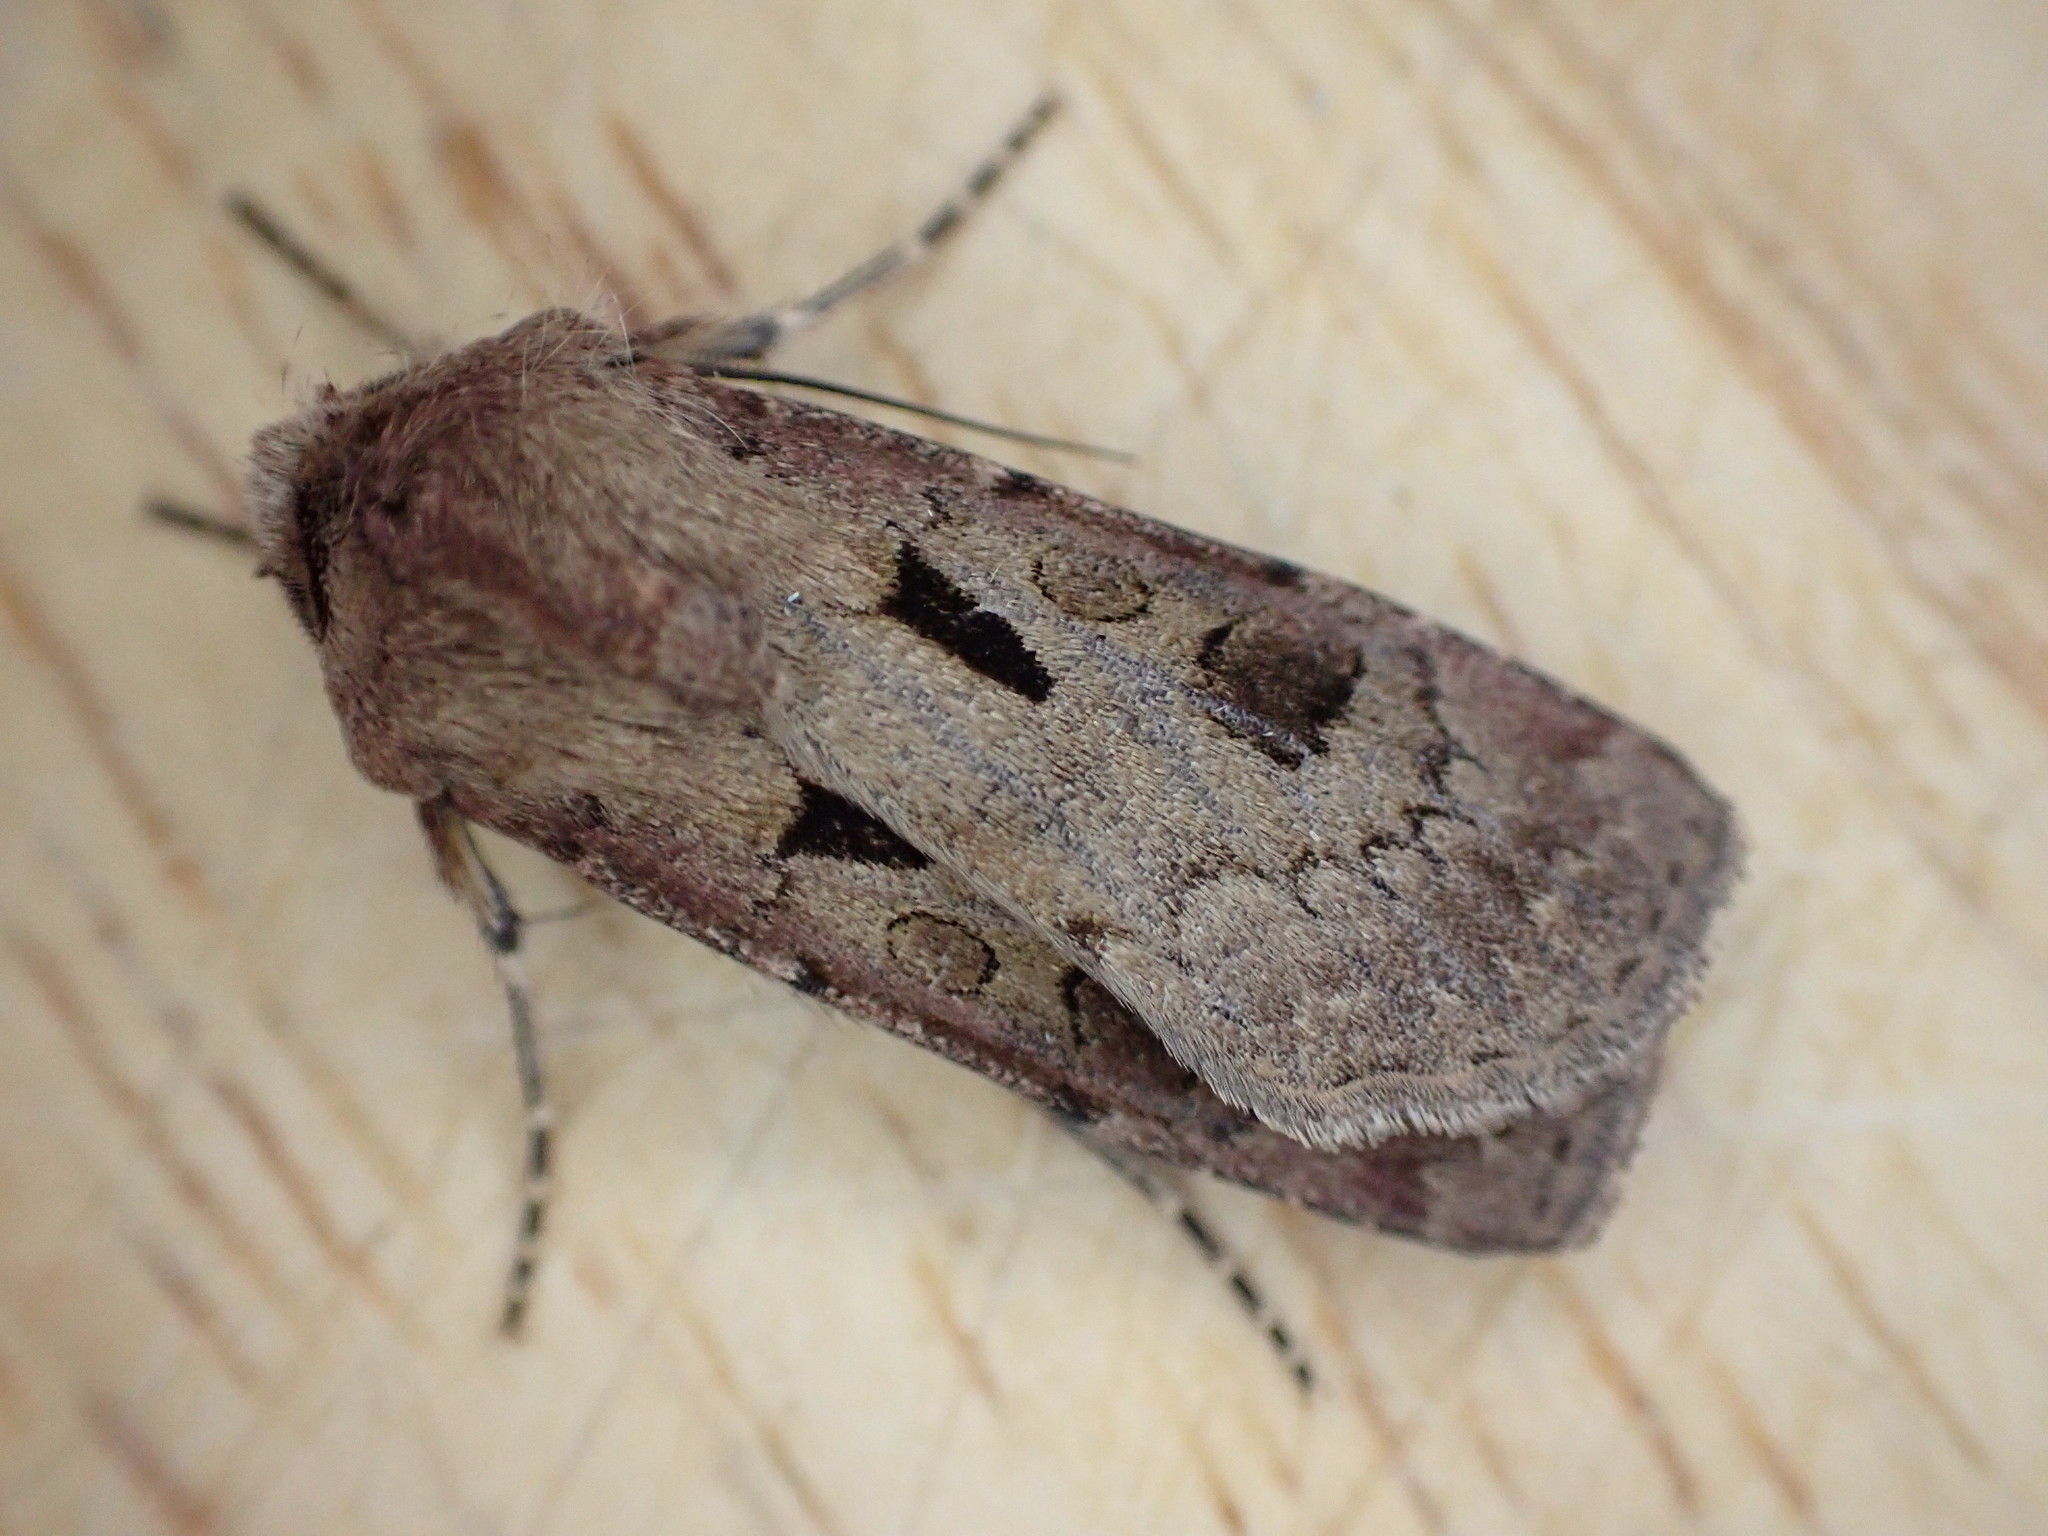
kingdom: Animalia
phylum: Arthropoda
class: Insecta
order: Lepidoptera
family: Noctuidae
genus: Agrotis
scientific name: Agrotis exclamationis
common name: Heart and dart
